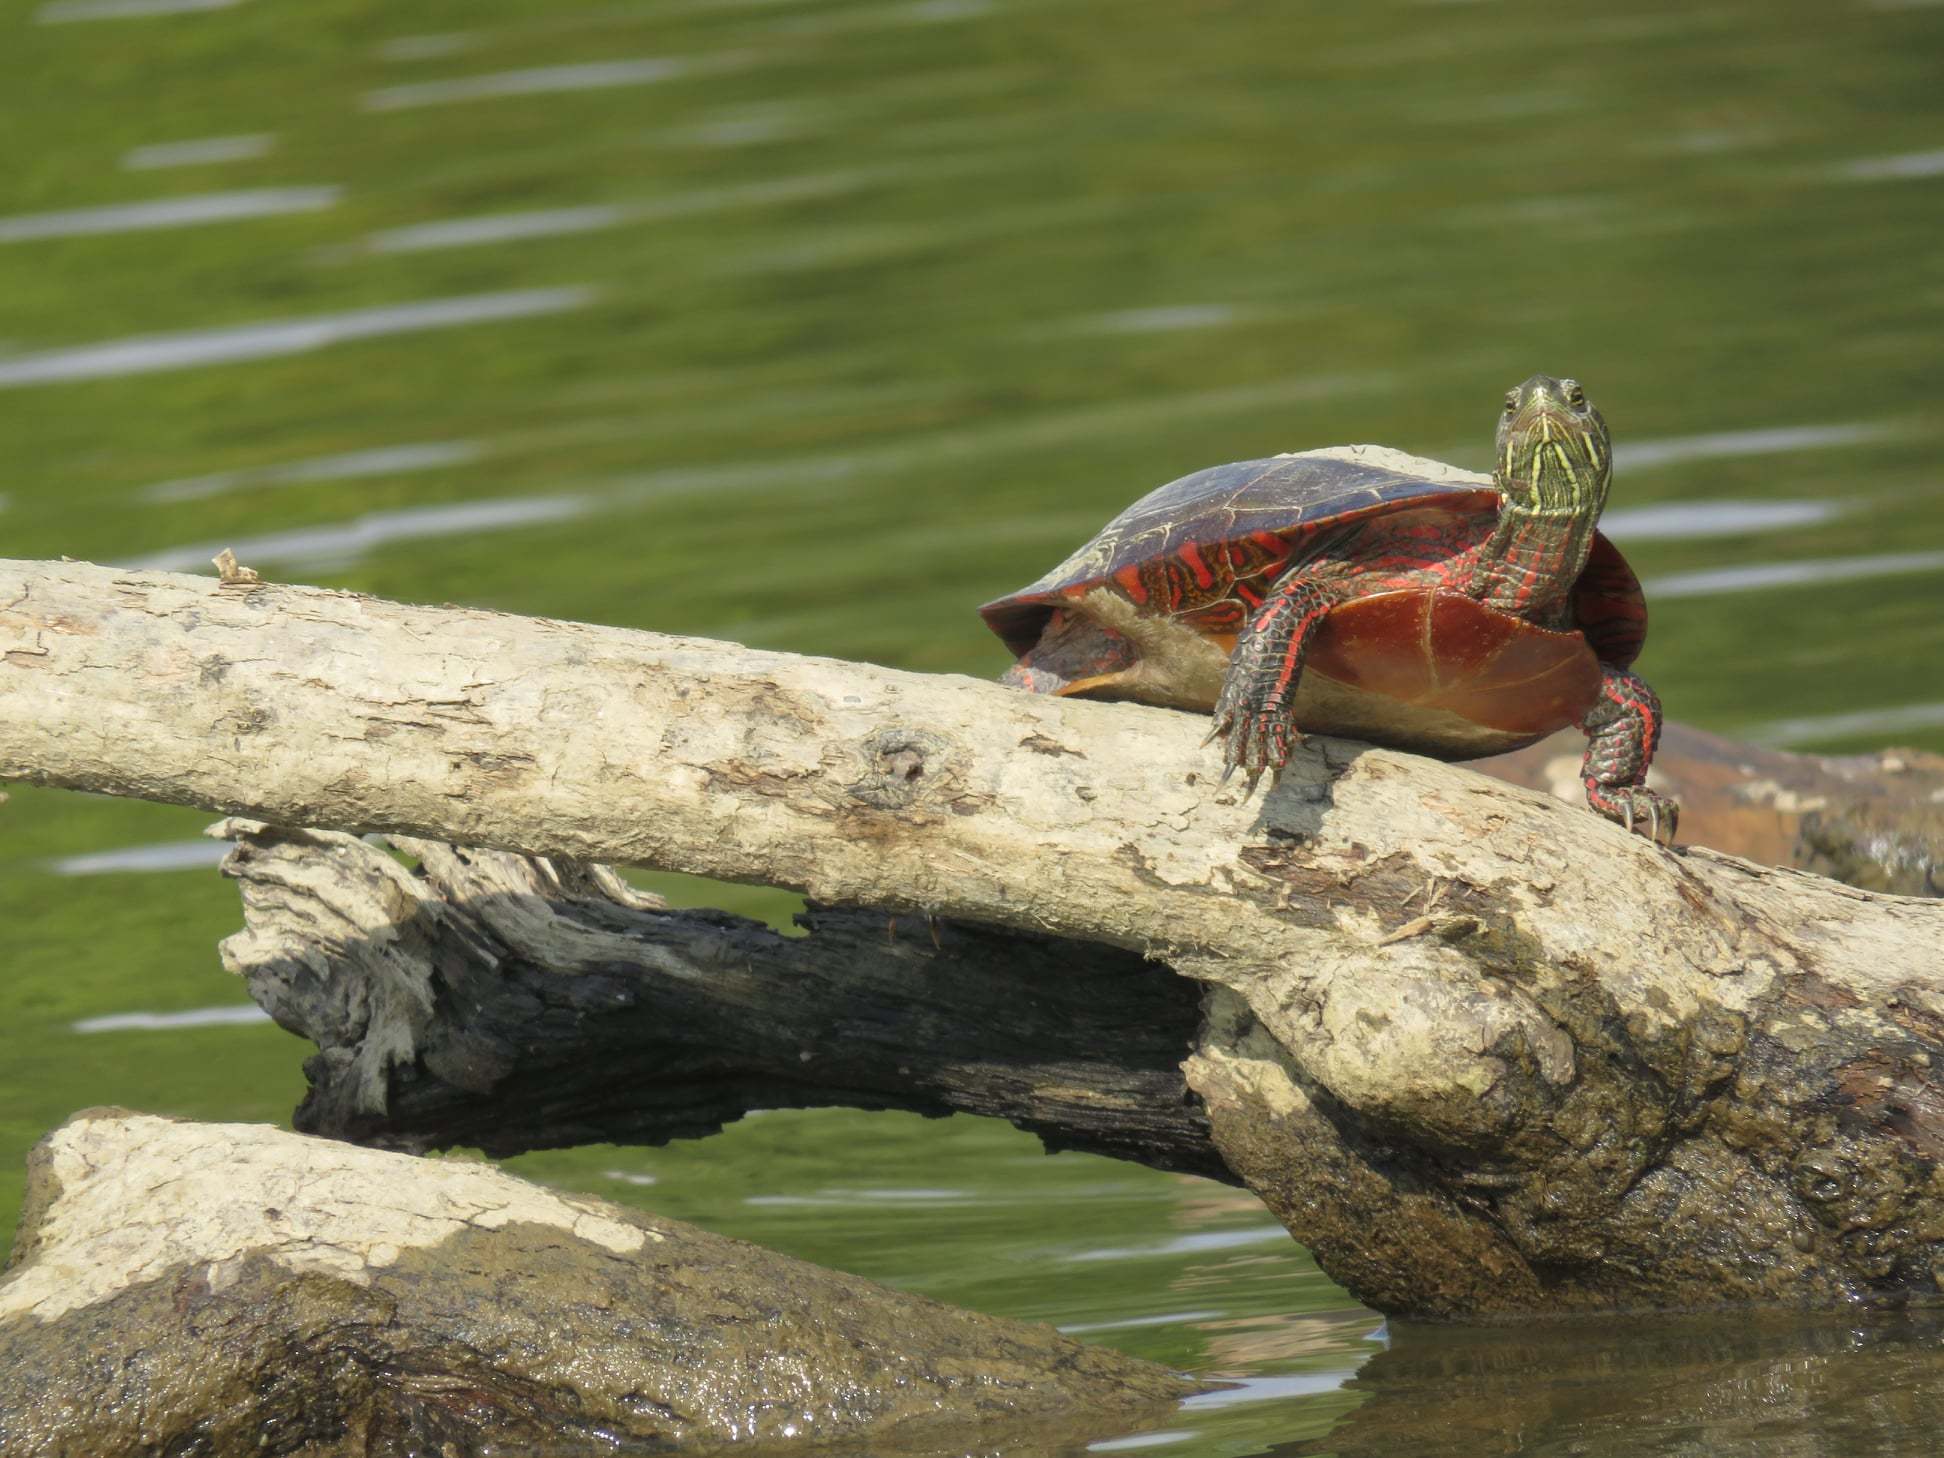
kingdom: Animalia
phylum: Chordata
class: Testudines
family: Emydidae
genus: Chrysemys
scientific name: Chrysemys picta
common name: Painted turtle
